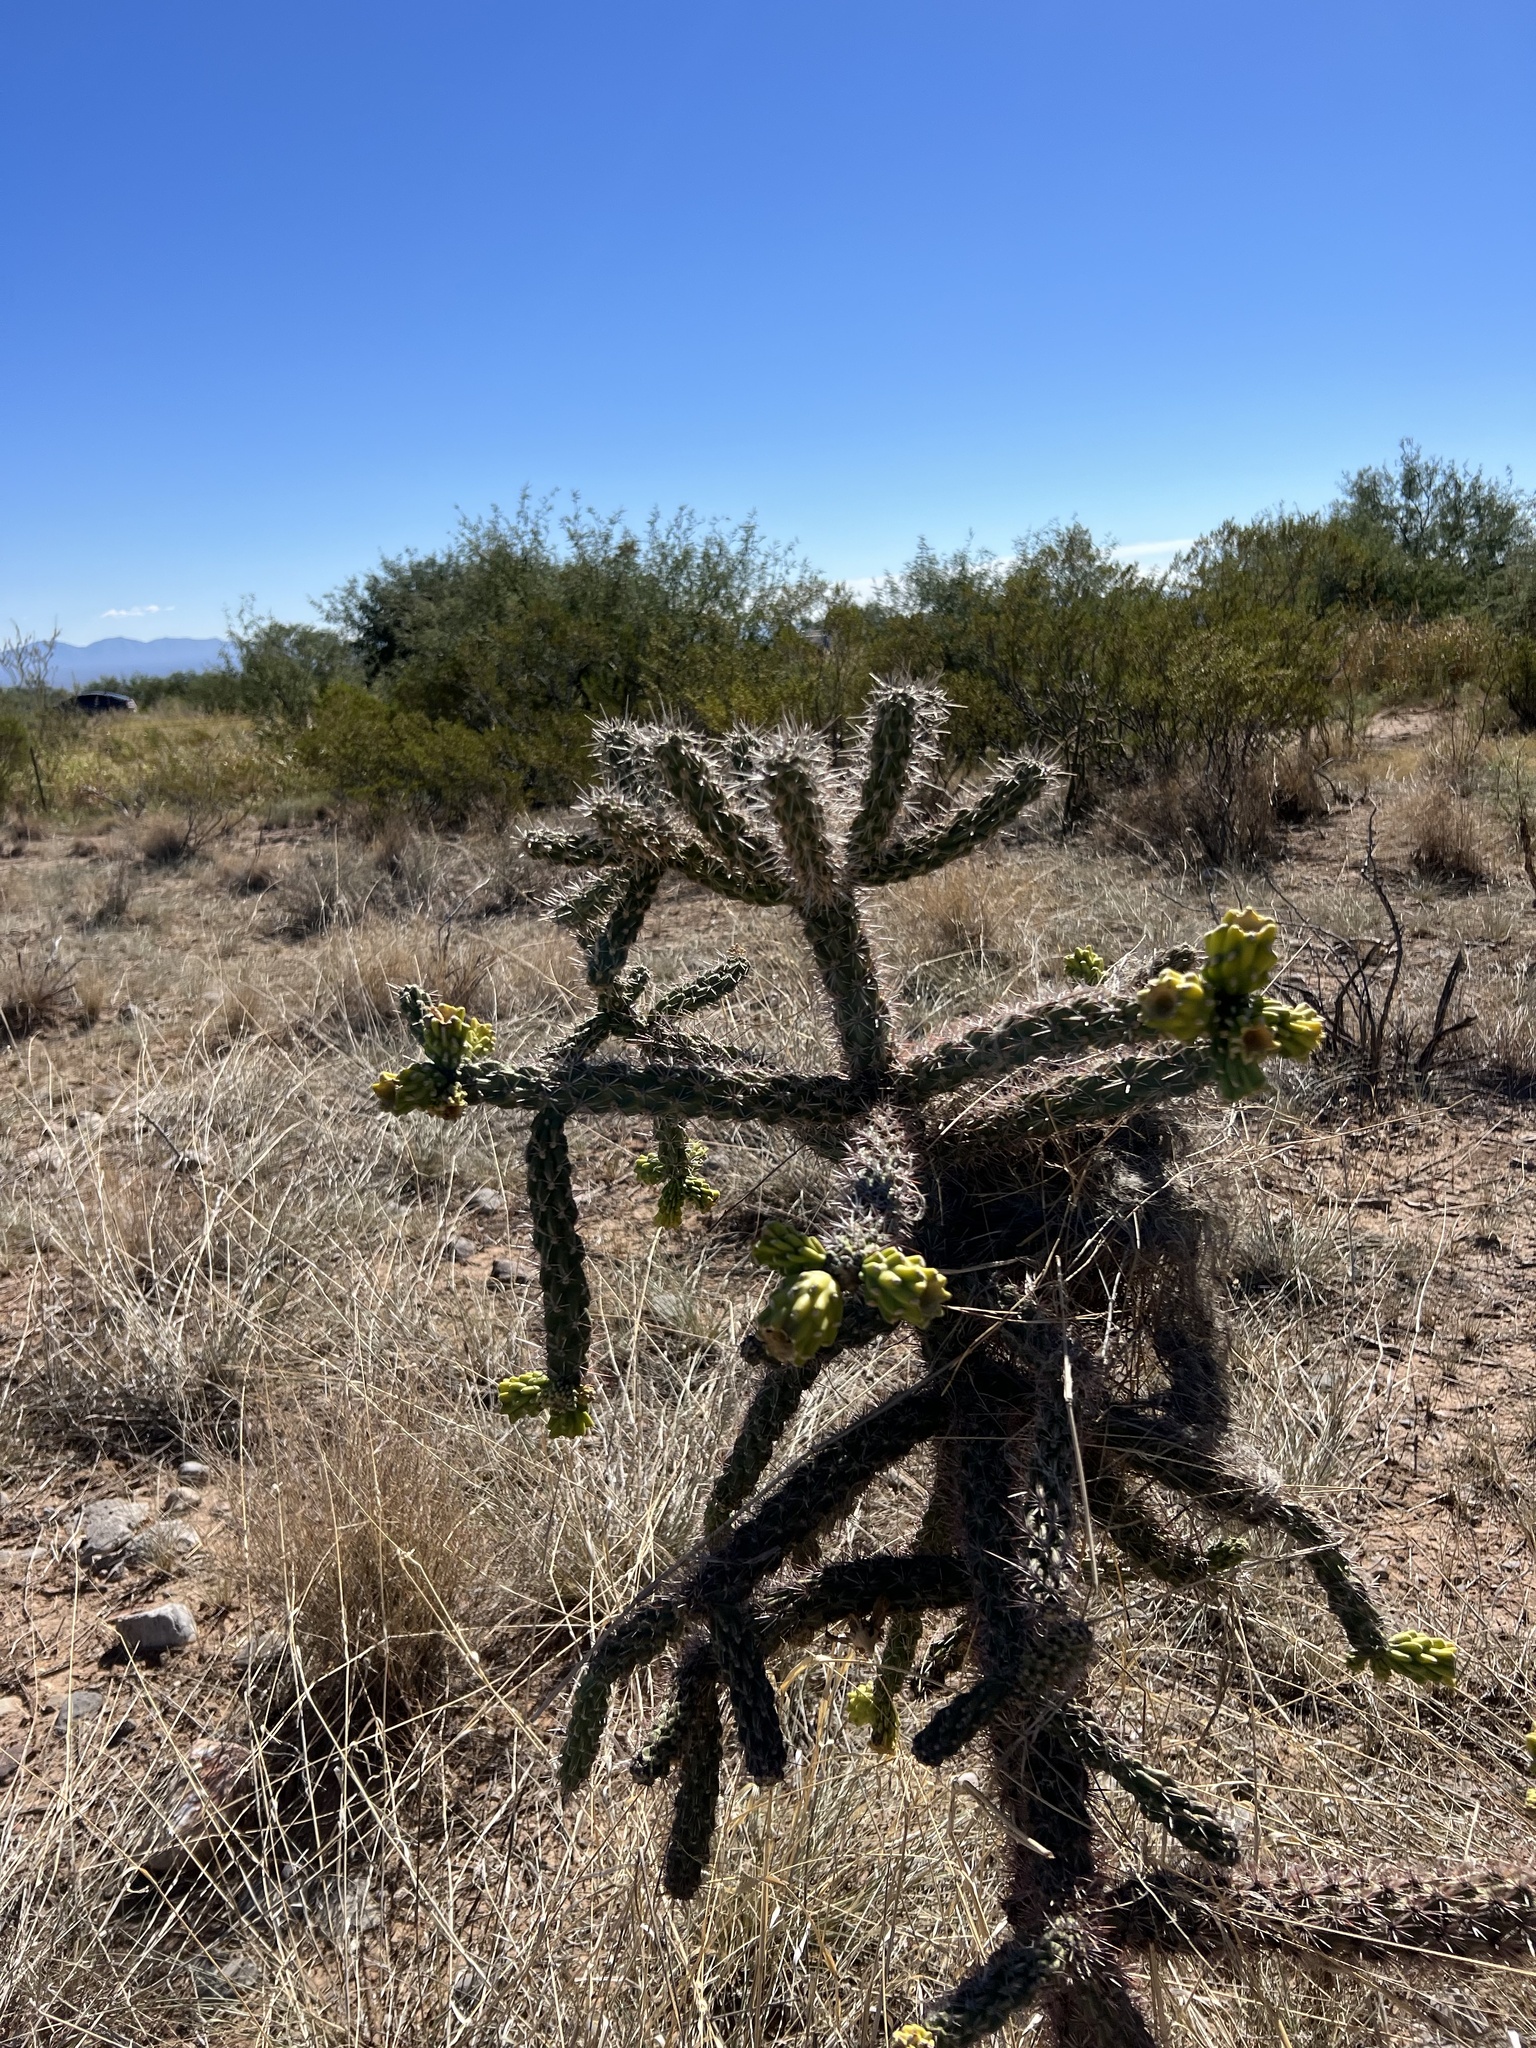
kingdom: Plantae
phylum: Tracheophyta
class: Magnoliopsida
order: Caryophyllales
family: Cactaceae
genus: Cylindropuntia
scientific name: Cylindropuntia imbricata
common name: Candelabrum cactus
